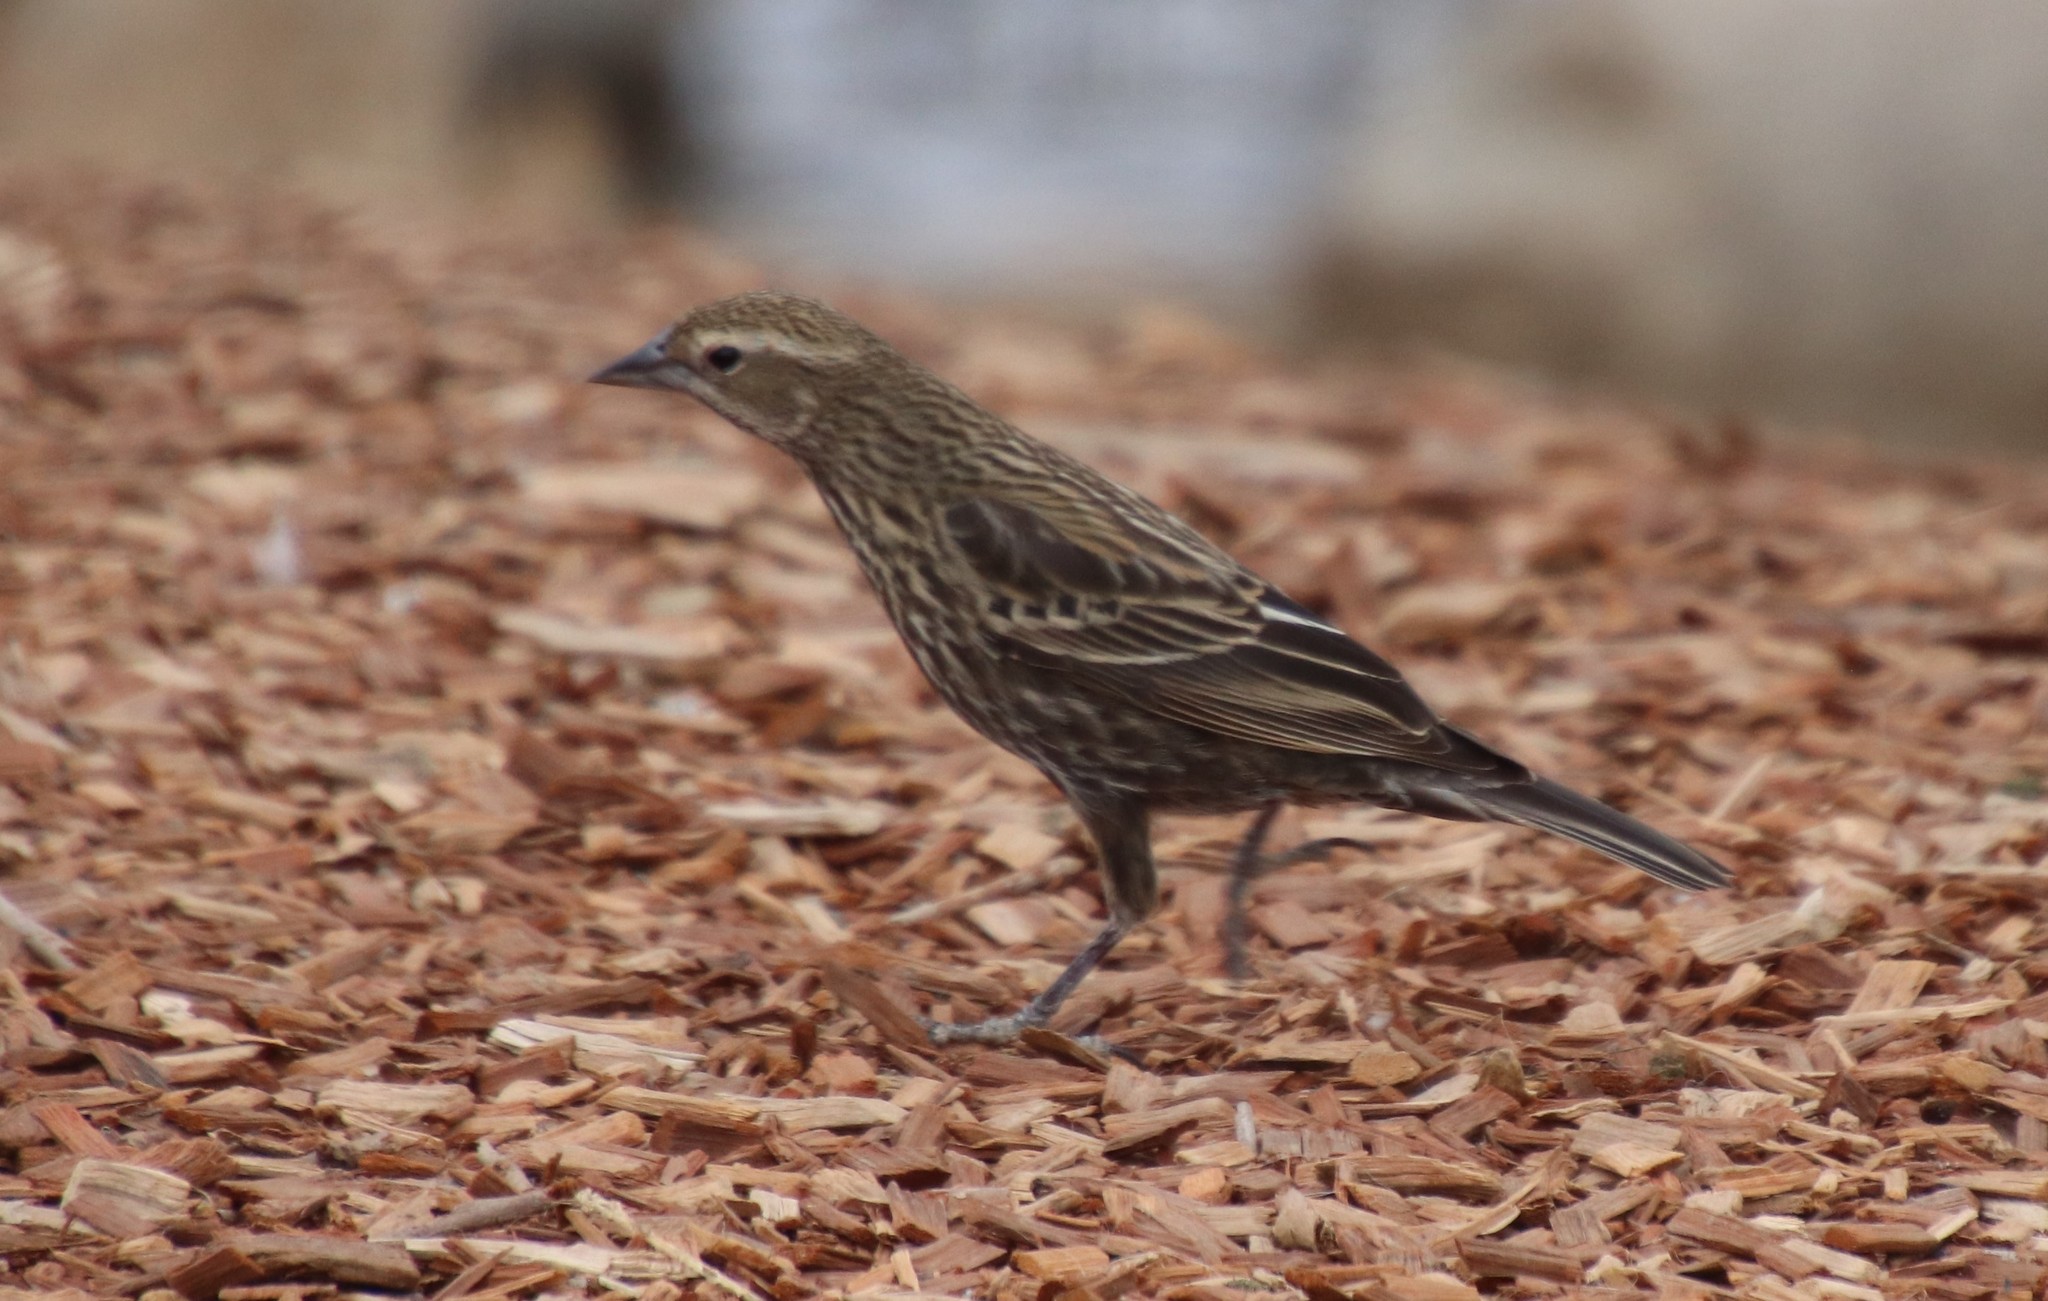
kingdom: Animalia
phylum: Chordata
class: Aves
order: Passeriformes
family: Icteridae
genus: Agelaius
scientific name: Agelaius phoeniceus
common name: Red-winged blackbird
